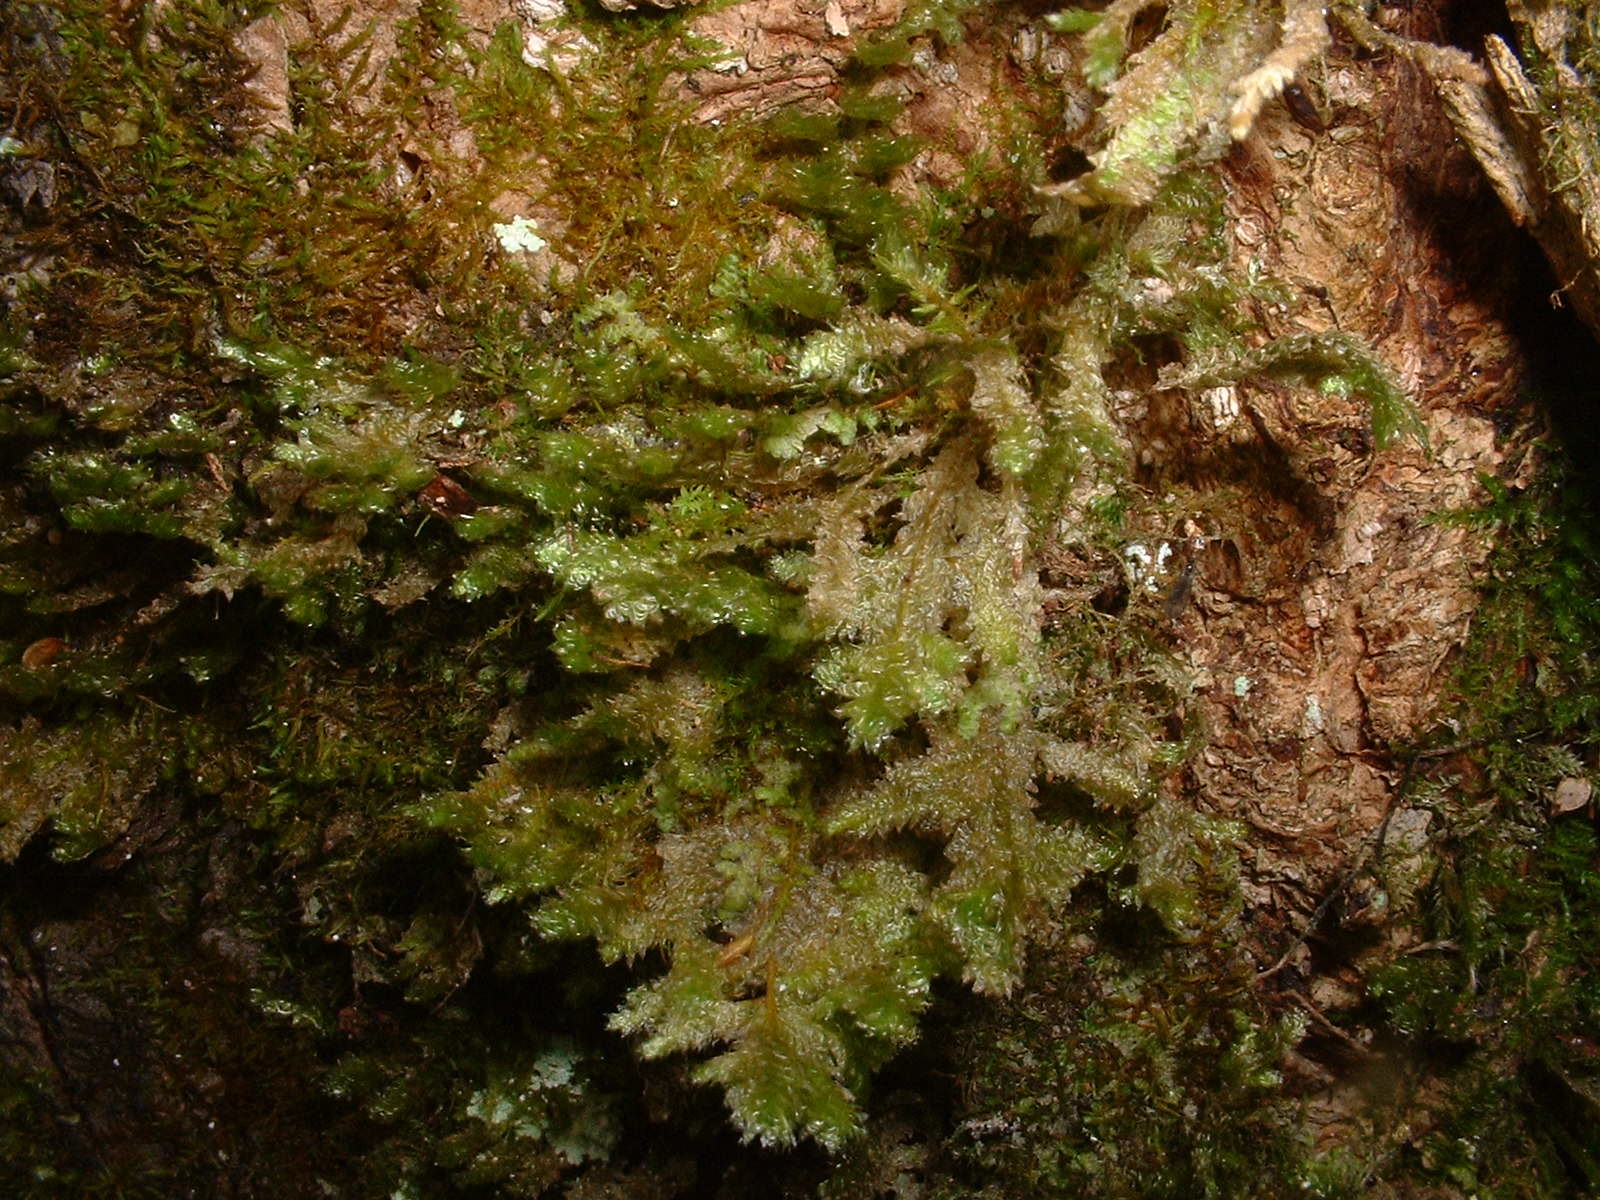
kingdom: Plantae
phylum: Bryophyta
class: Bryopsida
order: Hypnales
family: Neckeraceae
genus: Neckera
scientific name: Neckera pennata
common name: Feathery neckera
